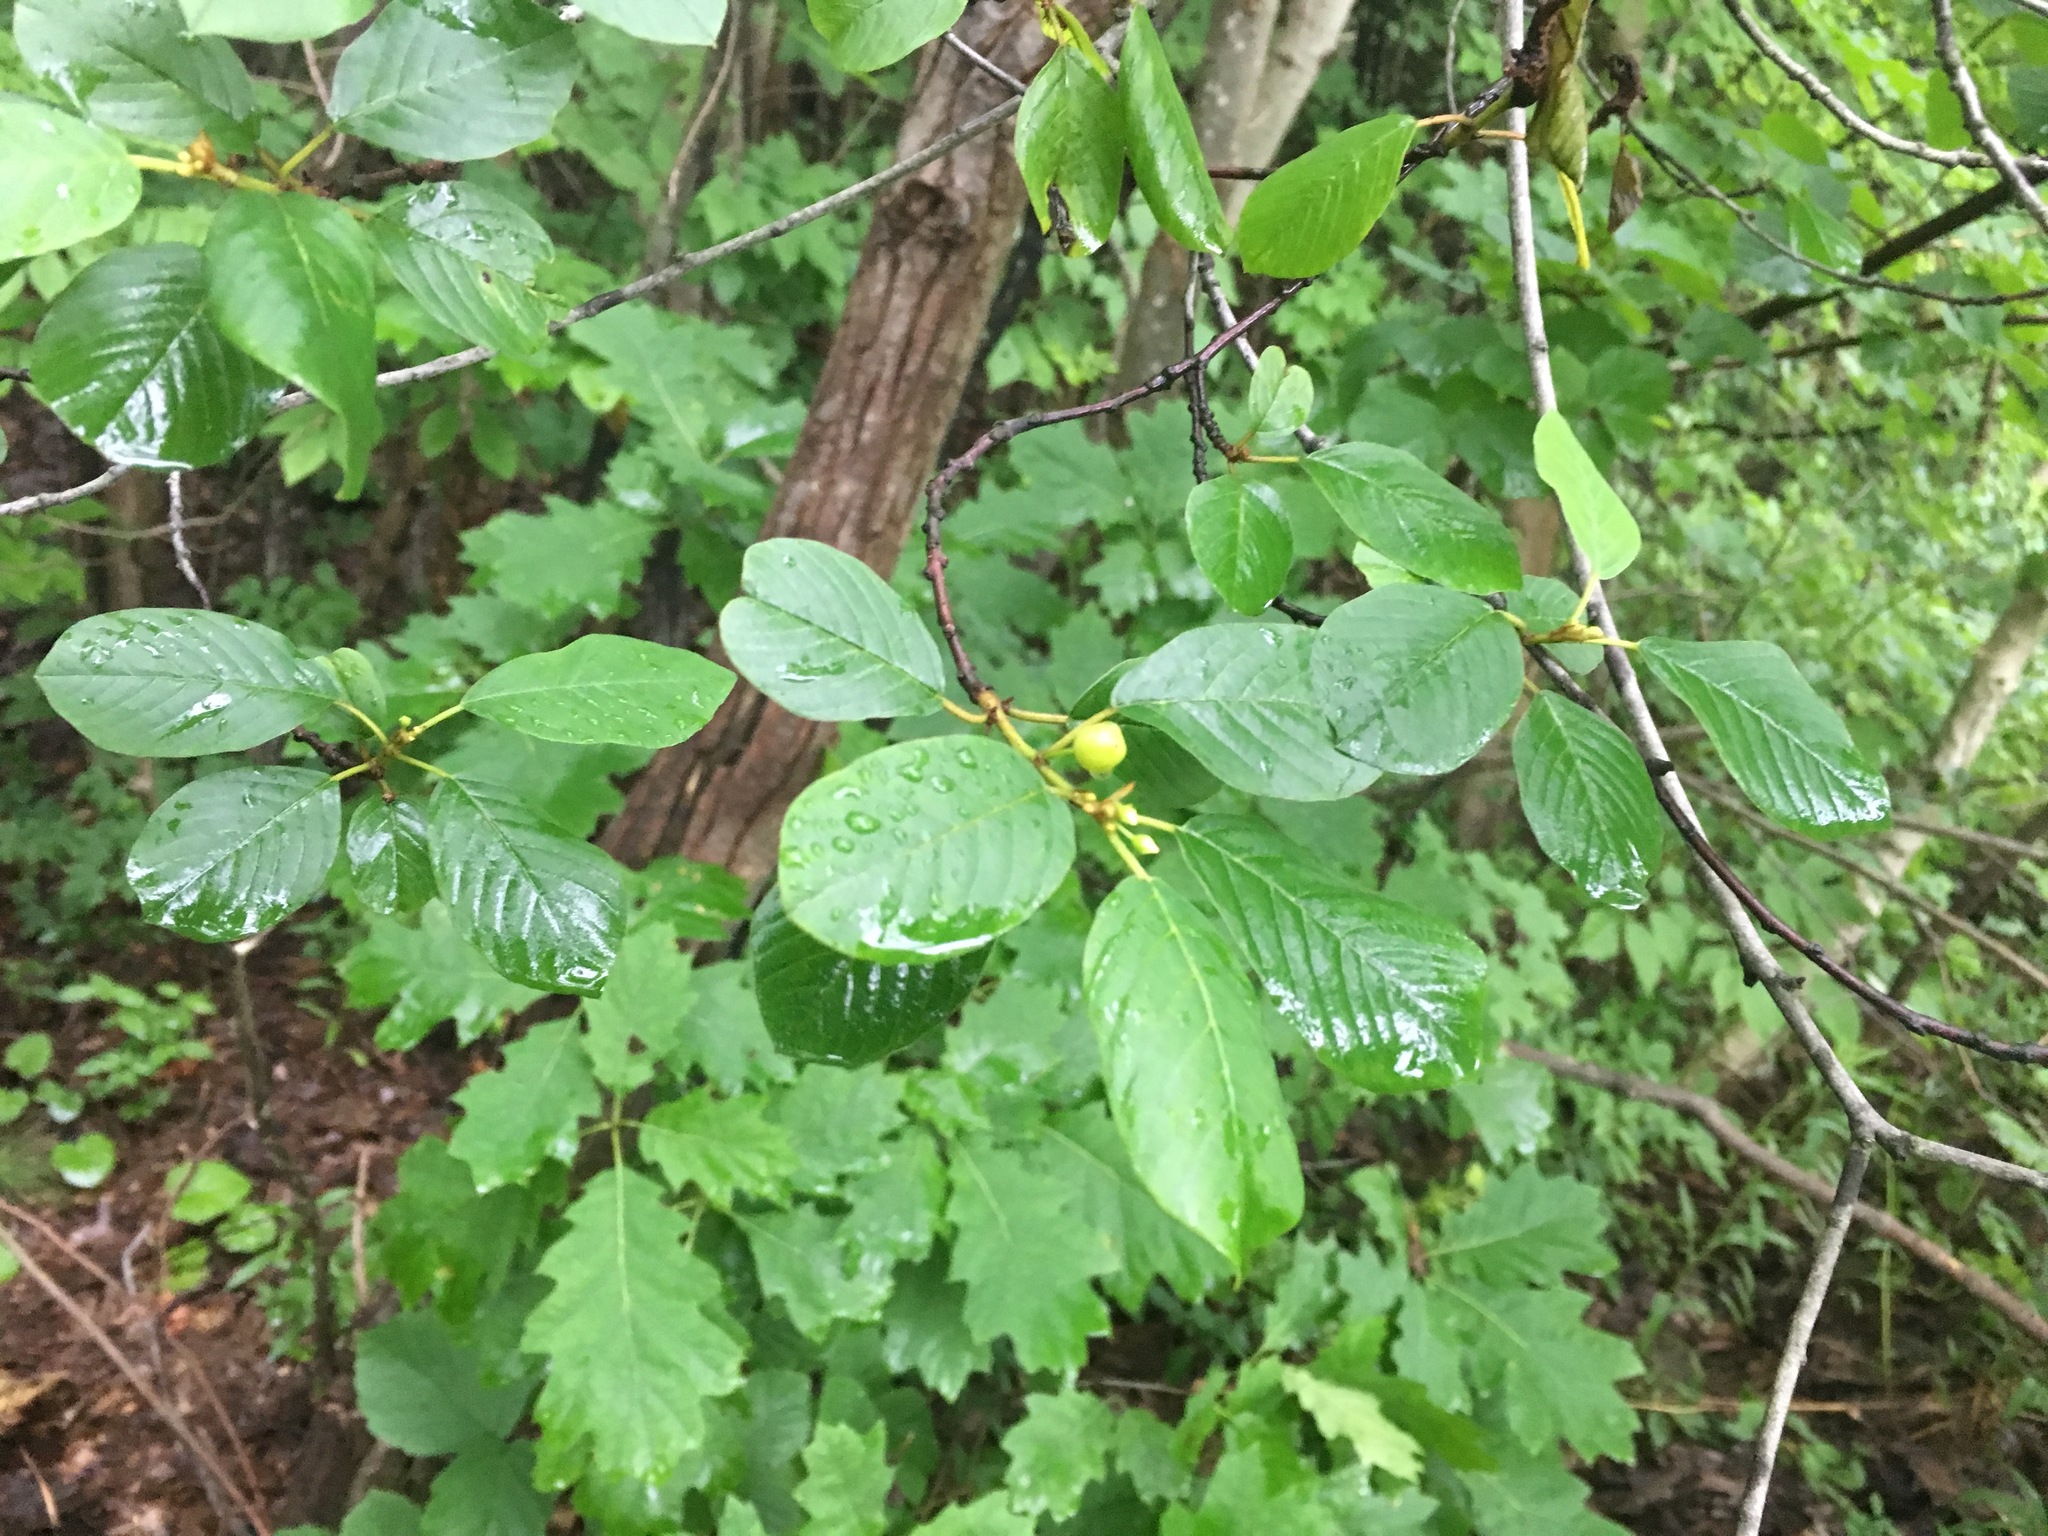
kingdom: Plantae
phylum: Tracheophyta
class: Magnoliopsida
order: Rosales
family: Rhamnaceae
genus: Frangula
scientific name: Frangula alnus
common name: Alder buckthorn
